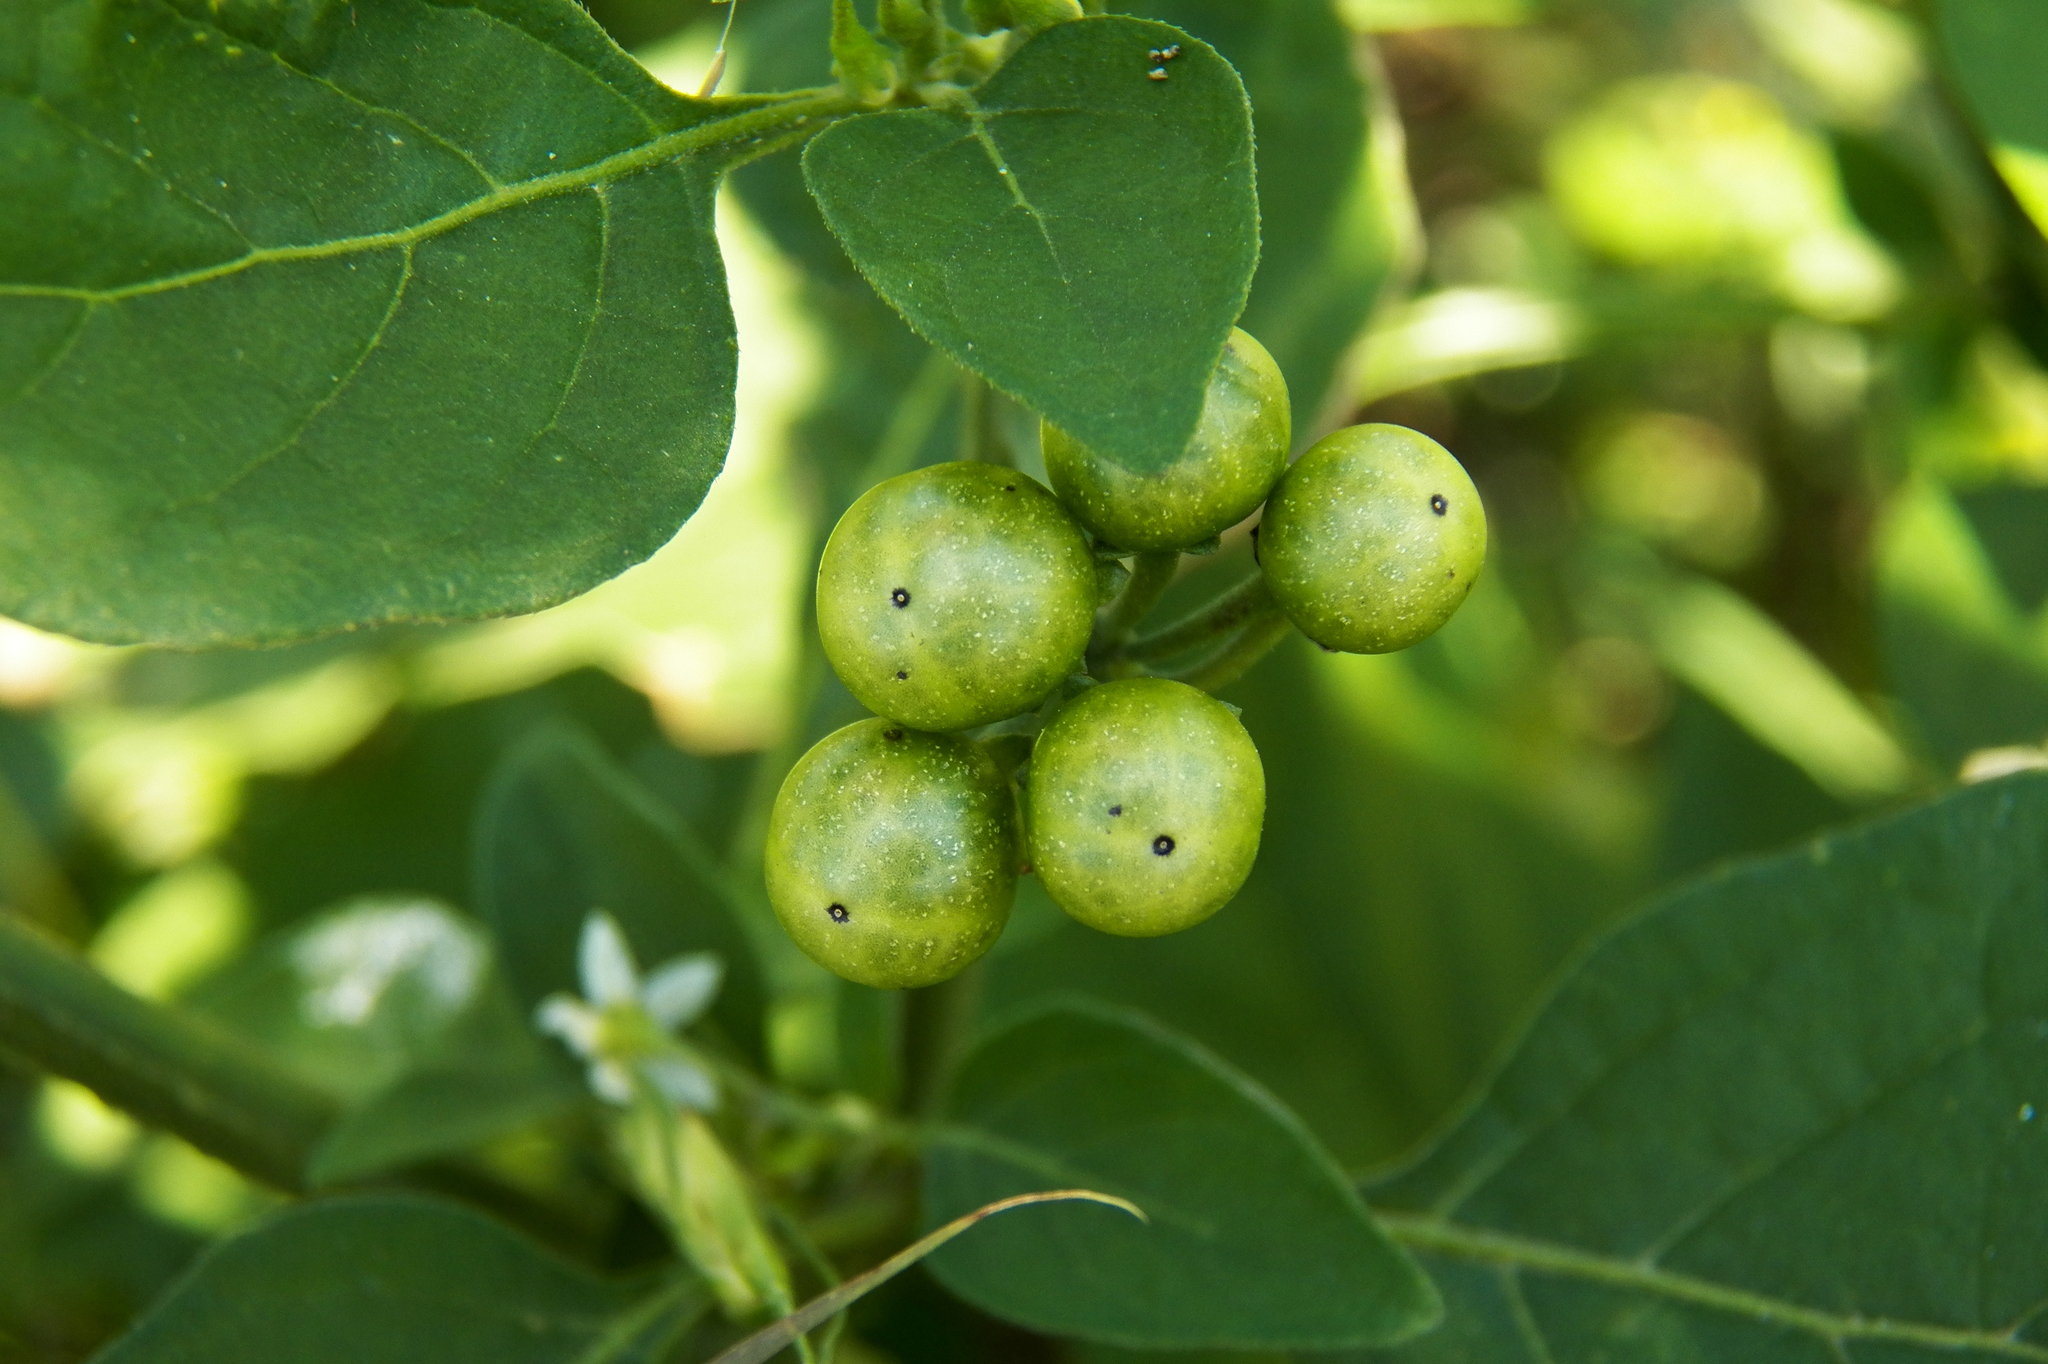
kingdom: Plantae
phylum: Tracheophyta
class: Magnoliopsida
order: Solanales
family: Solanaceae
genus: Solanum
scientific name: Solanum americanum
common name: American black nightshade
